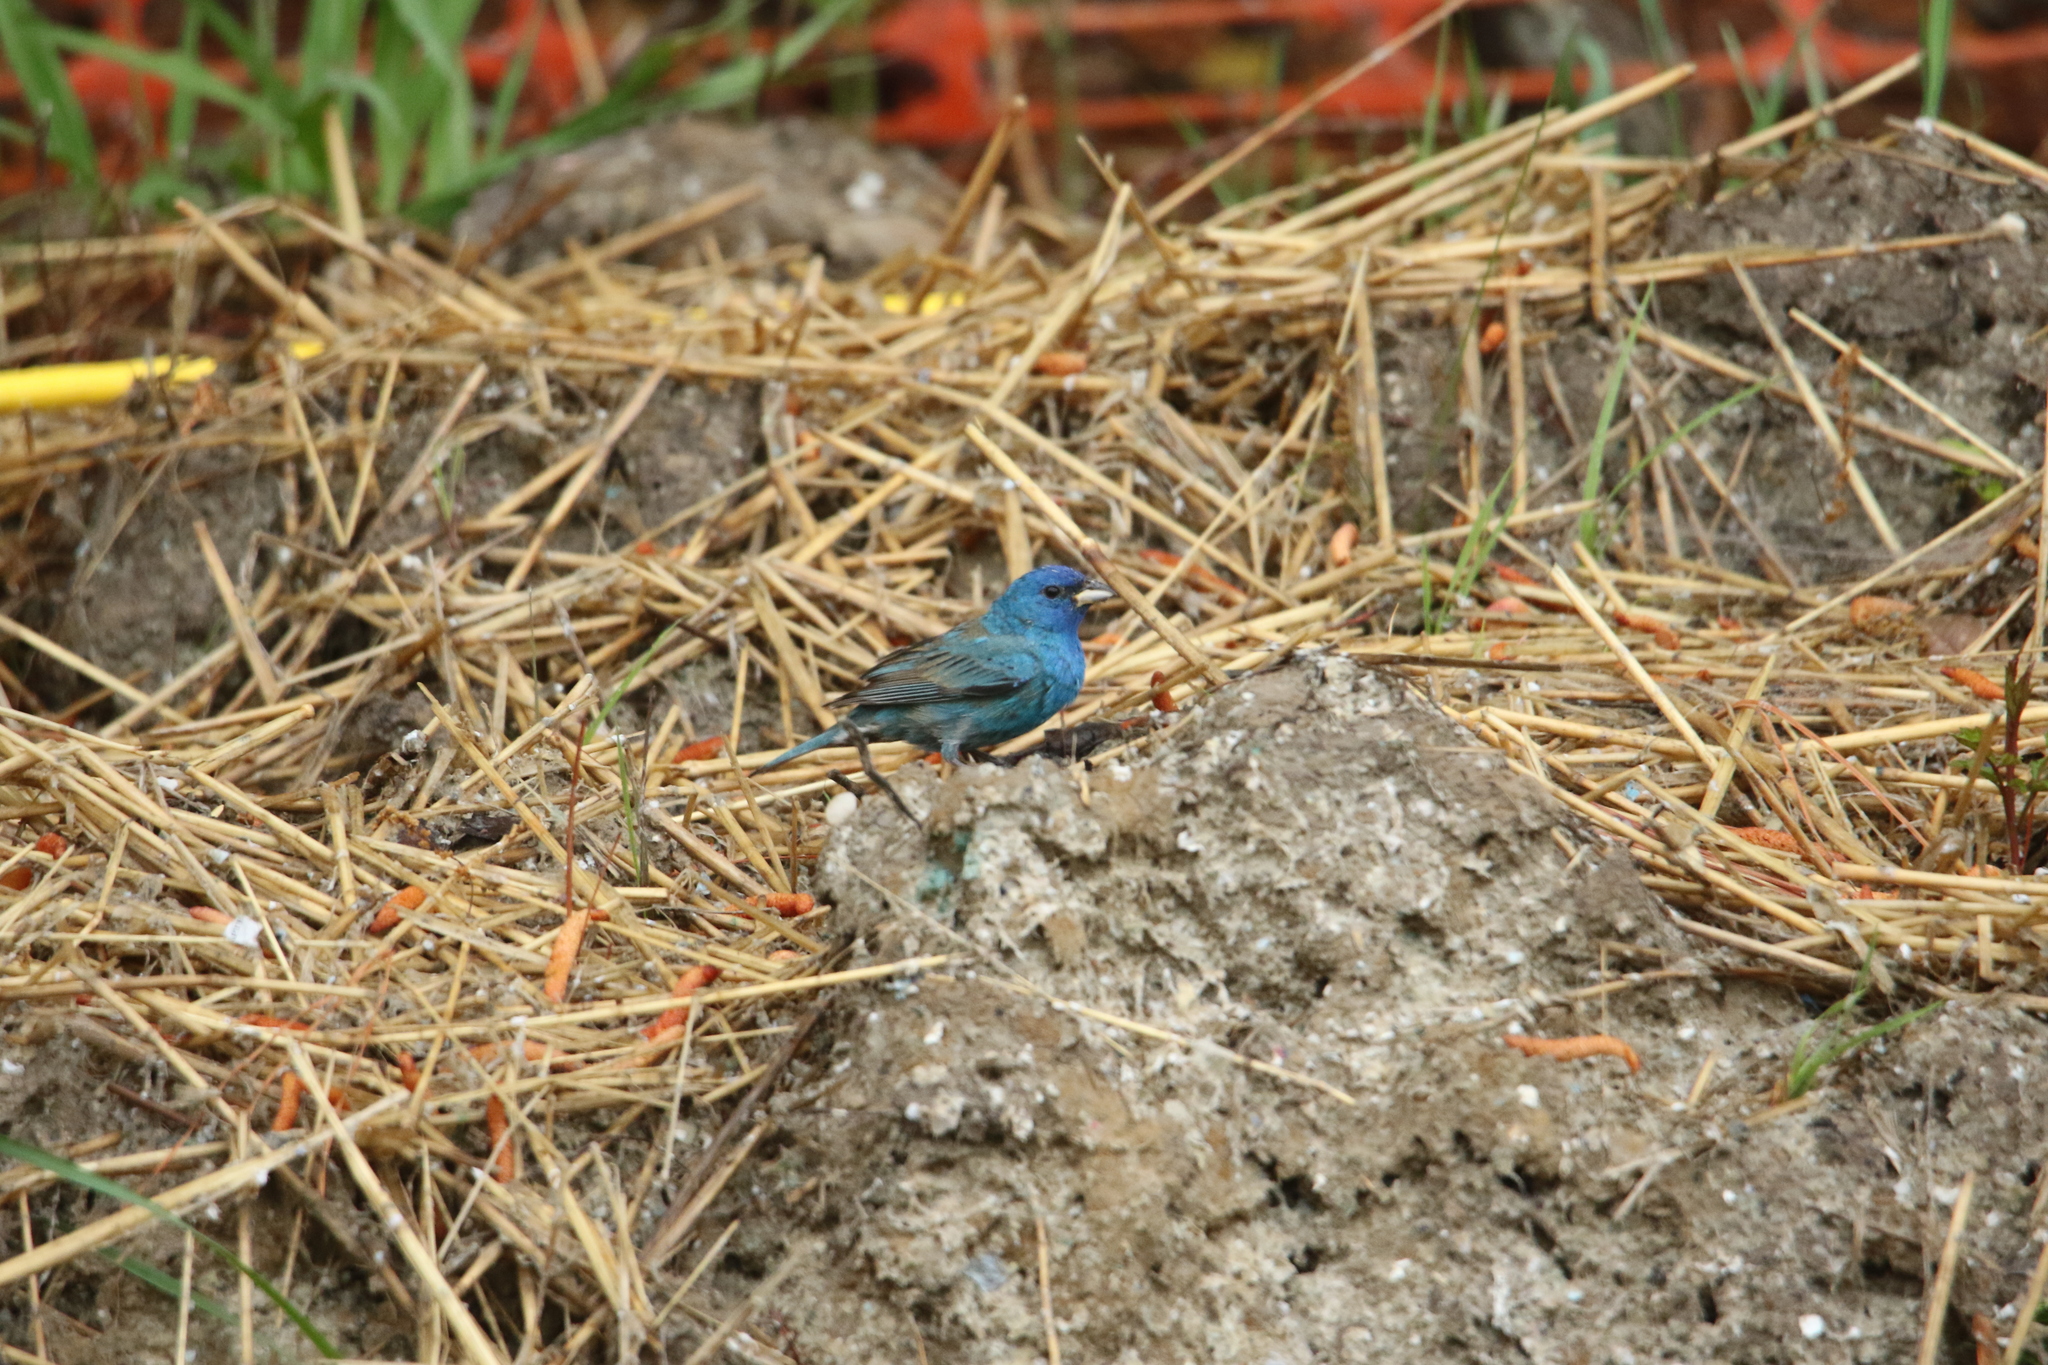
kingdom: Animalia
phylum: Chordata
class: Aves
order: Passeriformes
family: Cardinalidae
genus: Passerina
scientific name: Passerina cyanea
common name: Indigo bunting
